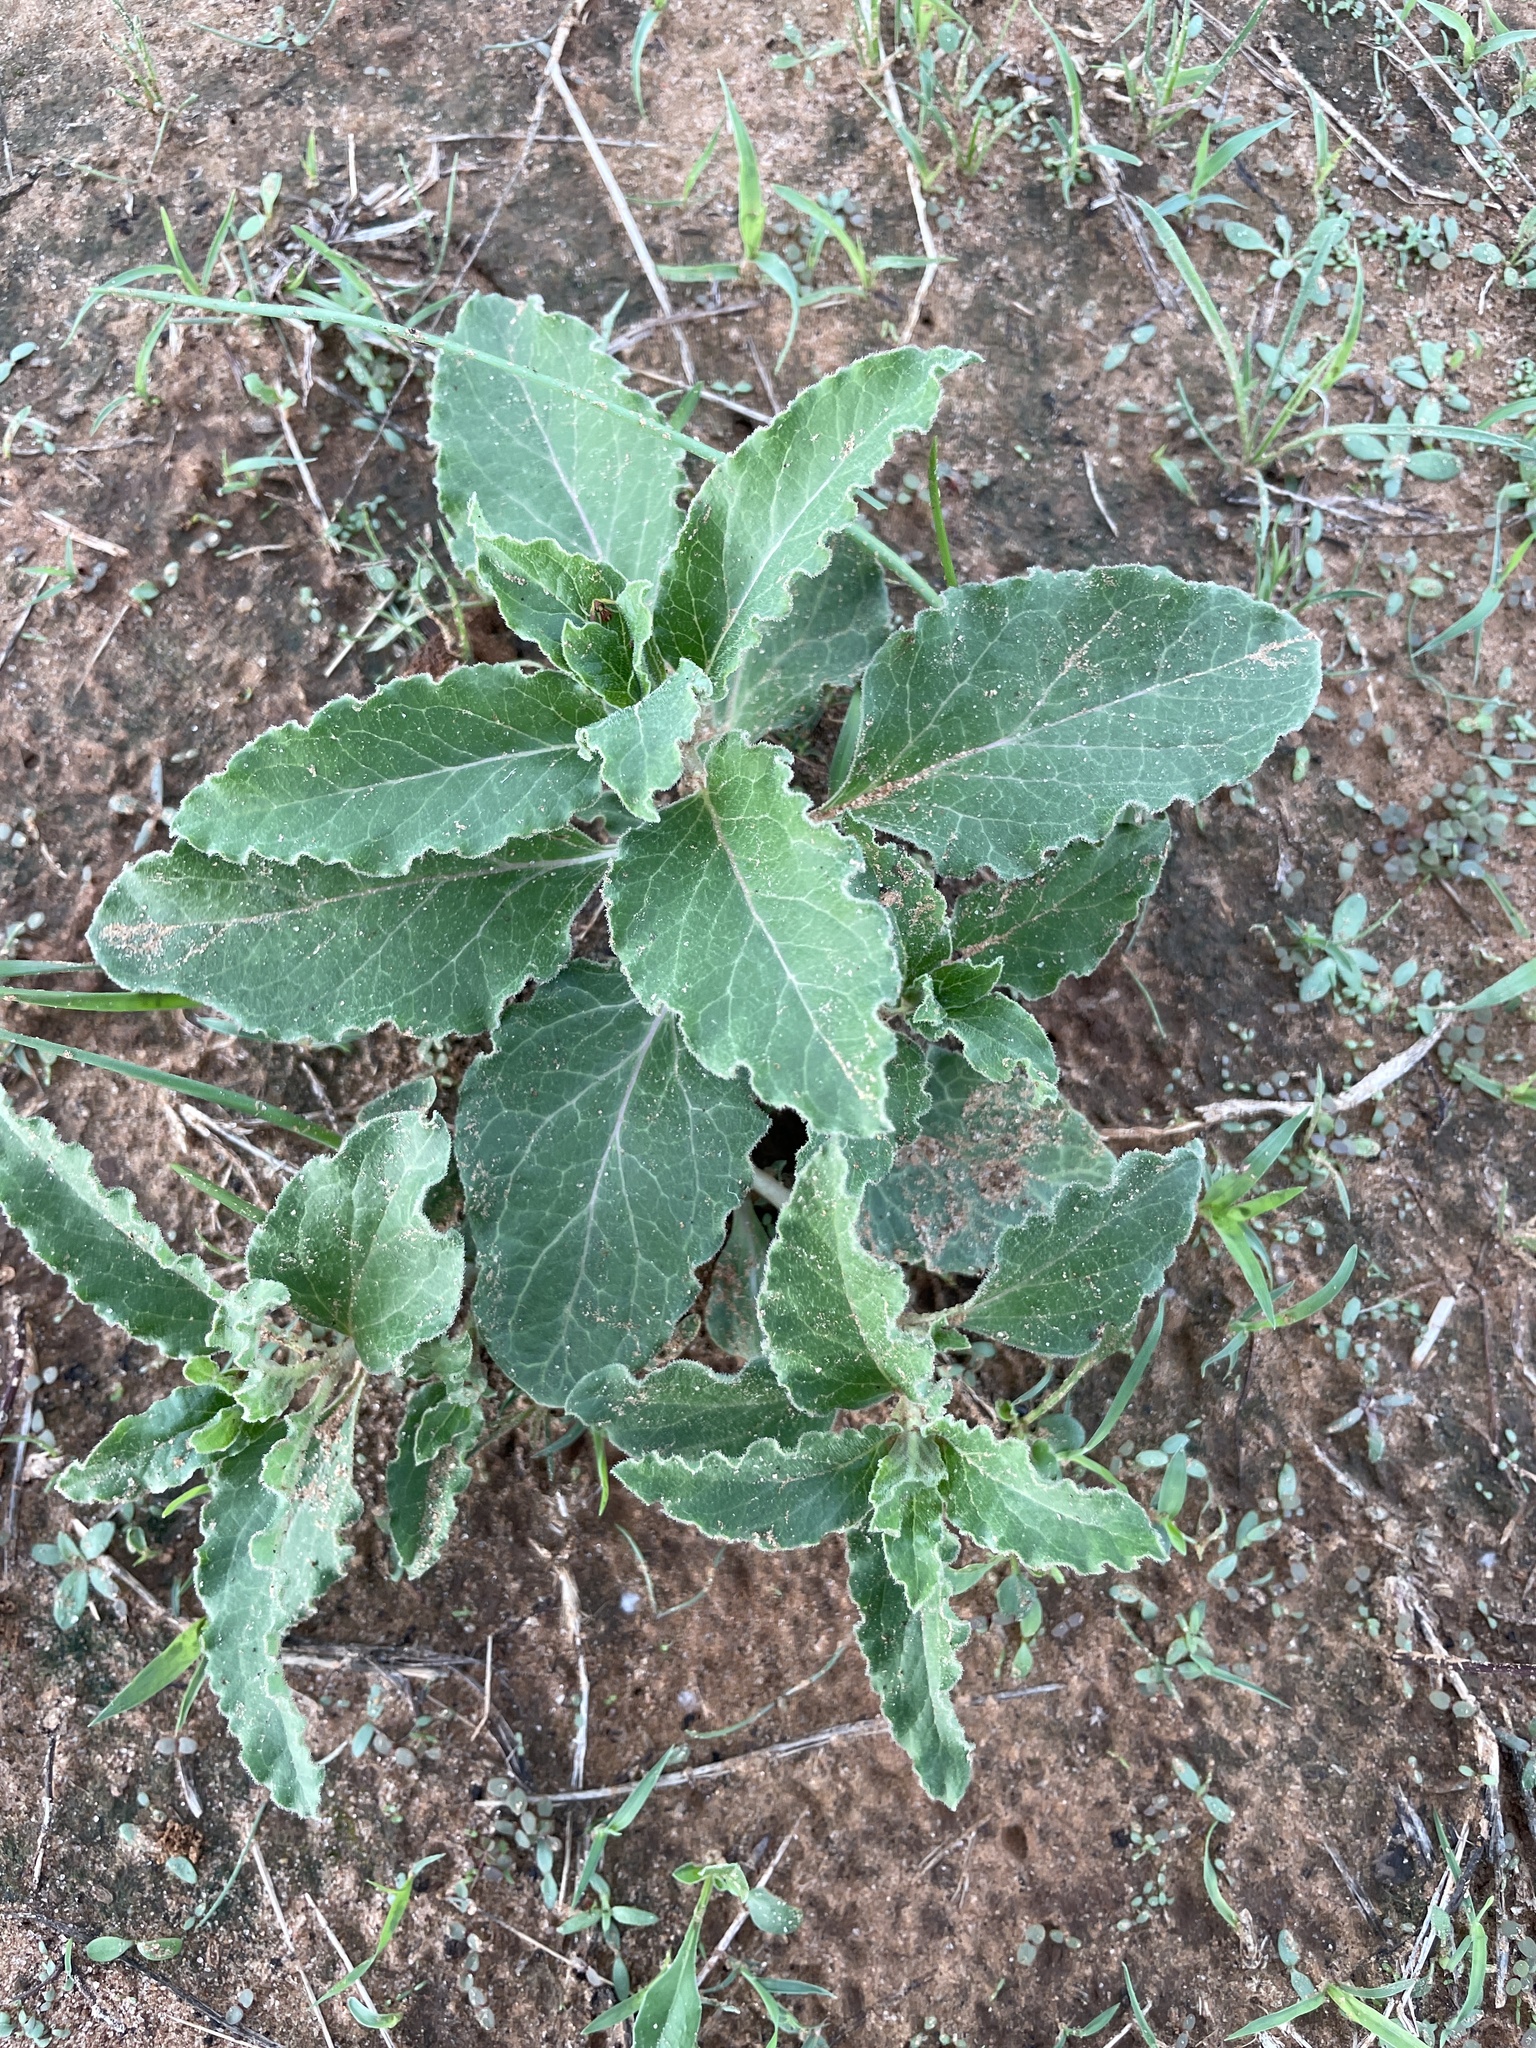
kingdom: Plantae
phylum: Tracheophyta
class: Magnoliopsida
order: Gentianales
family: Apocynaceae
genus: Asclepias
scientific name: Asclepias oenotheroides
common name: Zizotes milkweed
